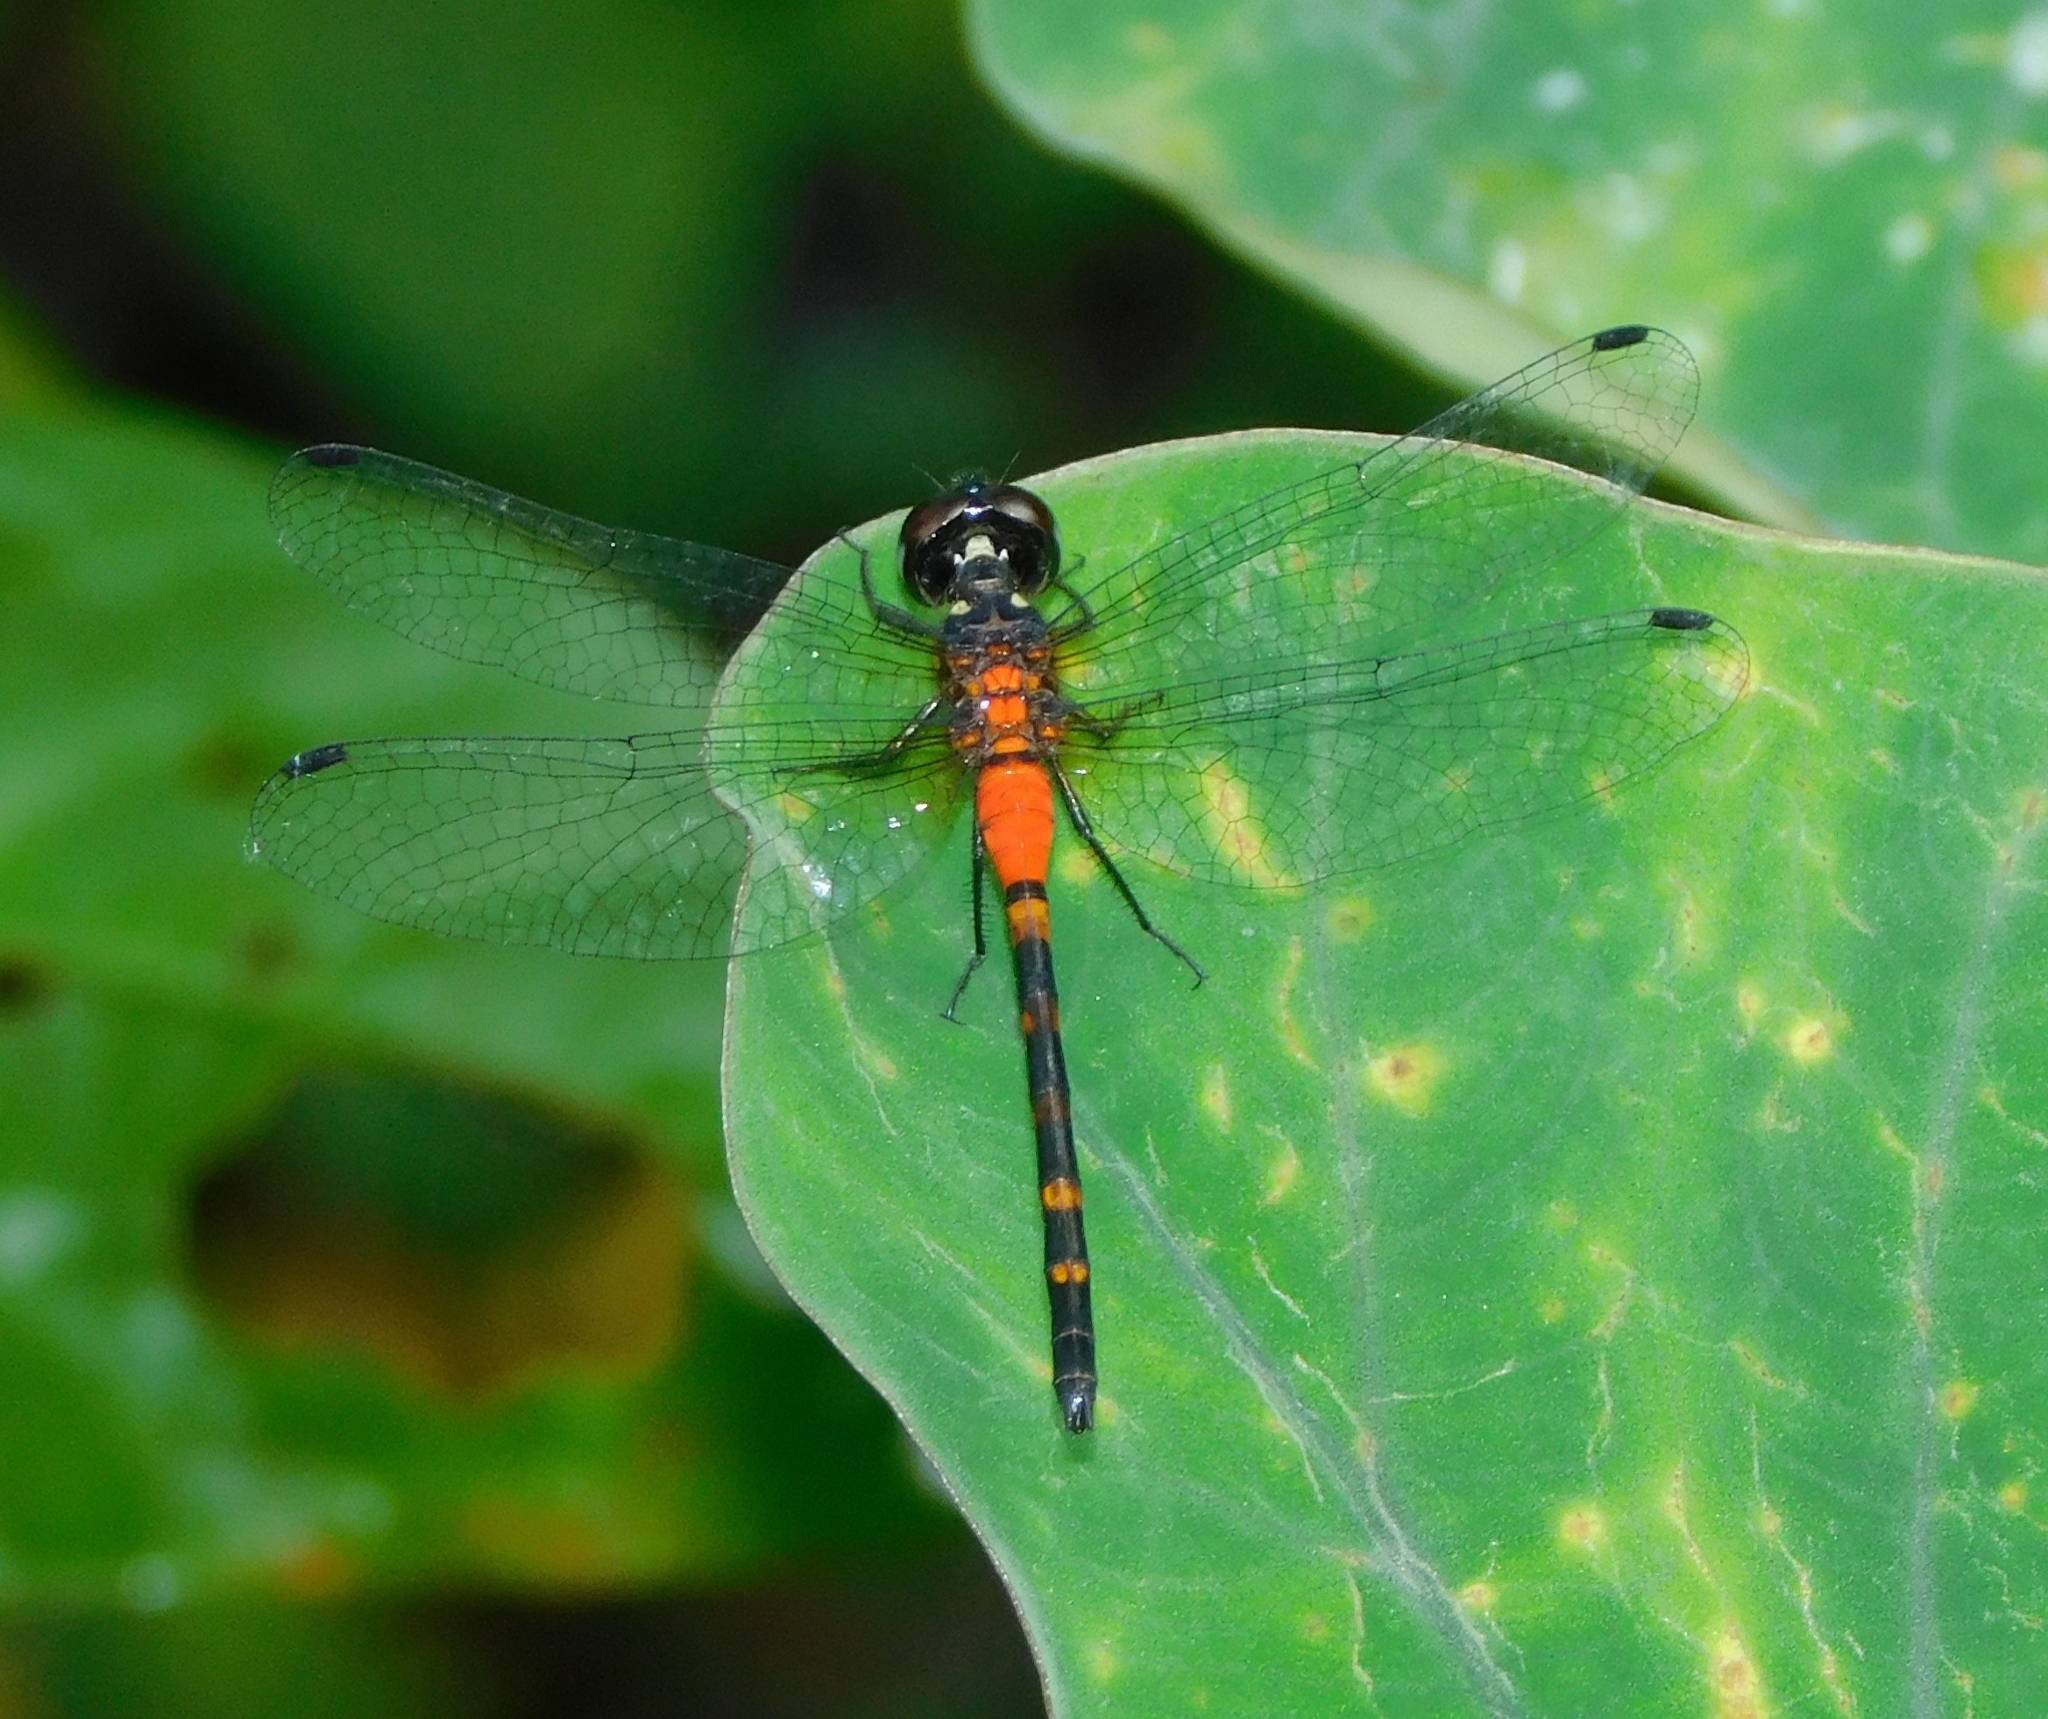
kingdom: Animalia
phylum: Arthropoda
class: Insecta
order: Odonata
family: Libellulidae
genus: Epithemis
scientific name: Epithemis mariae
